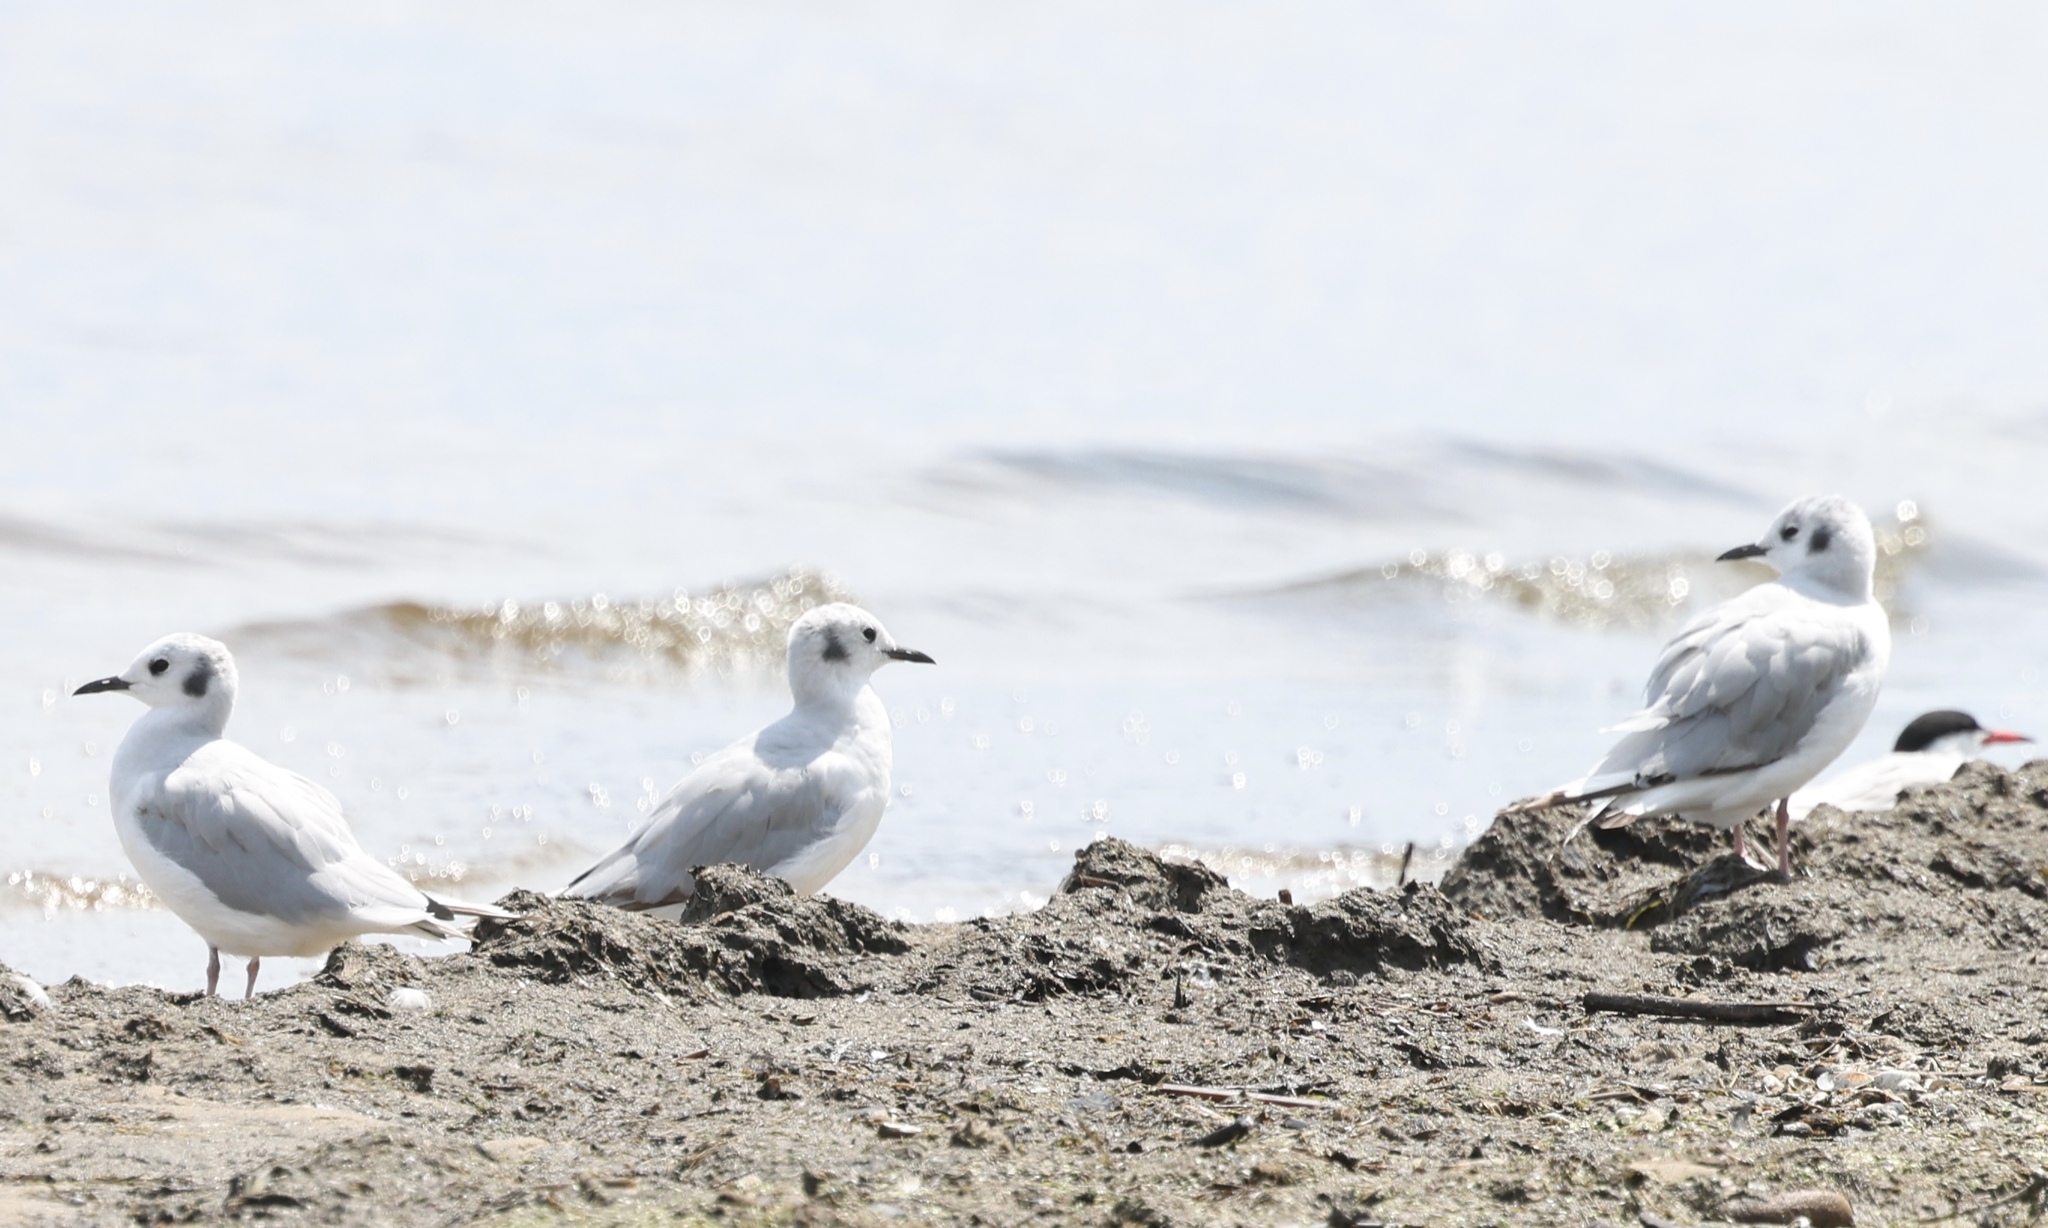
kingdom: Animalia
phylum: Chordata
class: Aves
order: Charadriiformes
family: Laridae
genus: Chroicocephalus
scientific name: Chroicocephalus philadelphia
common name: Bonaparte's gull
